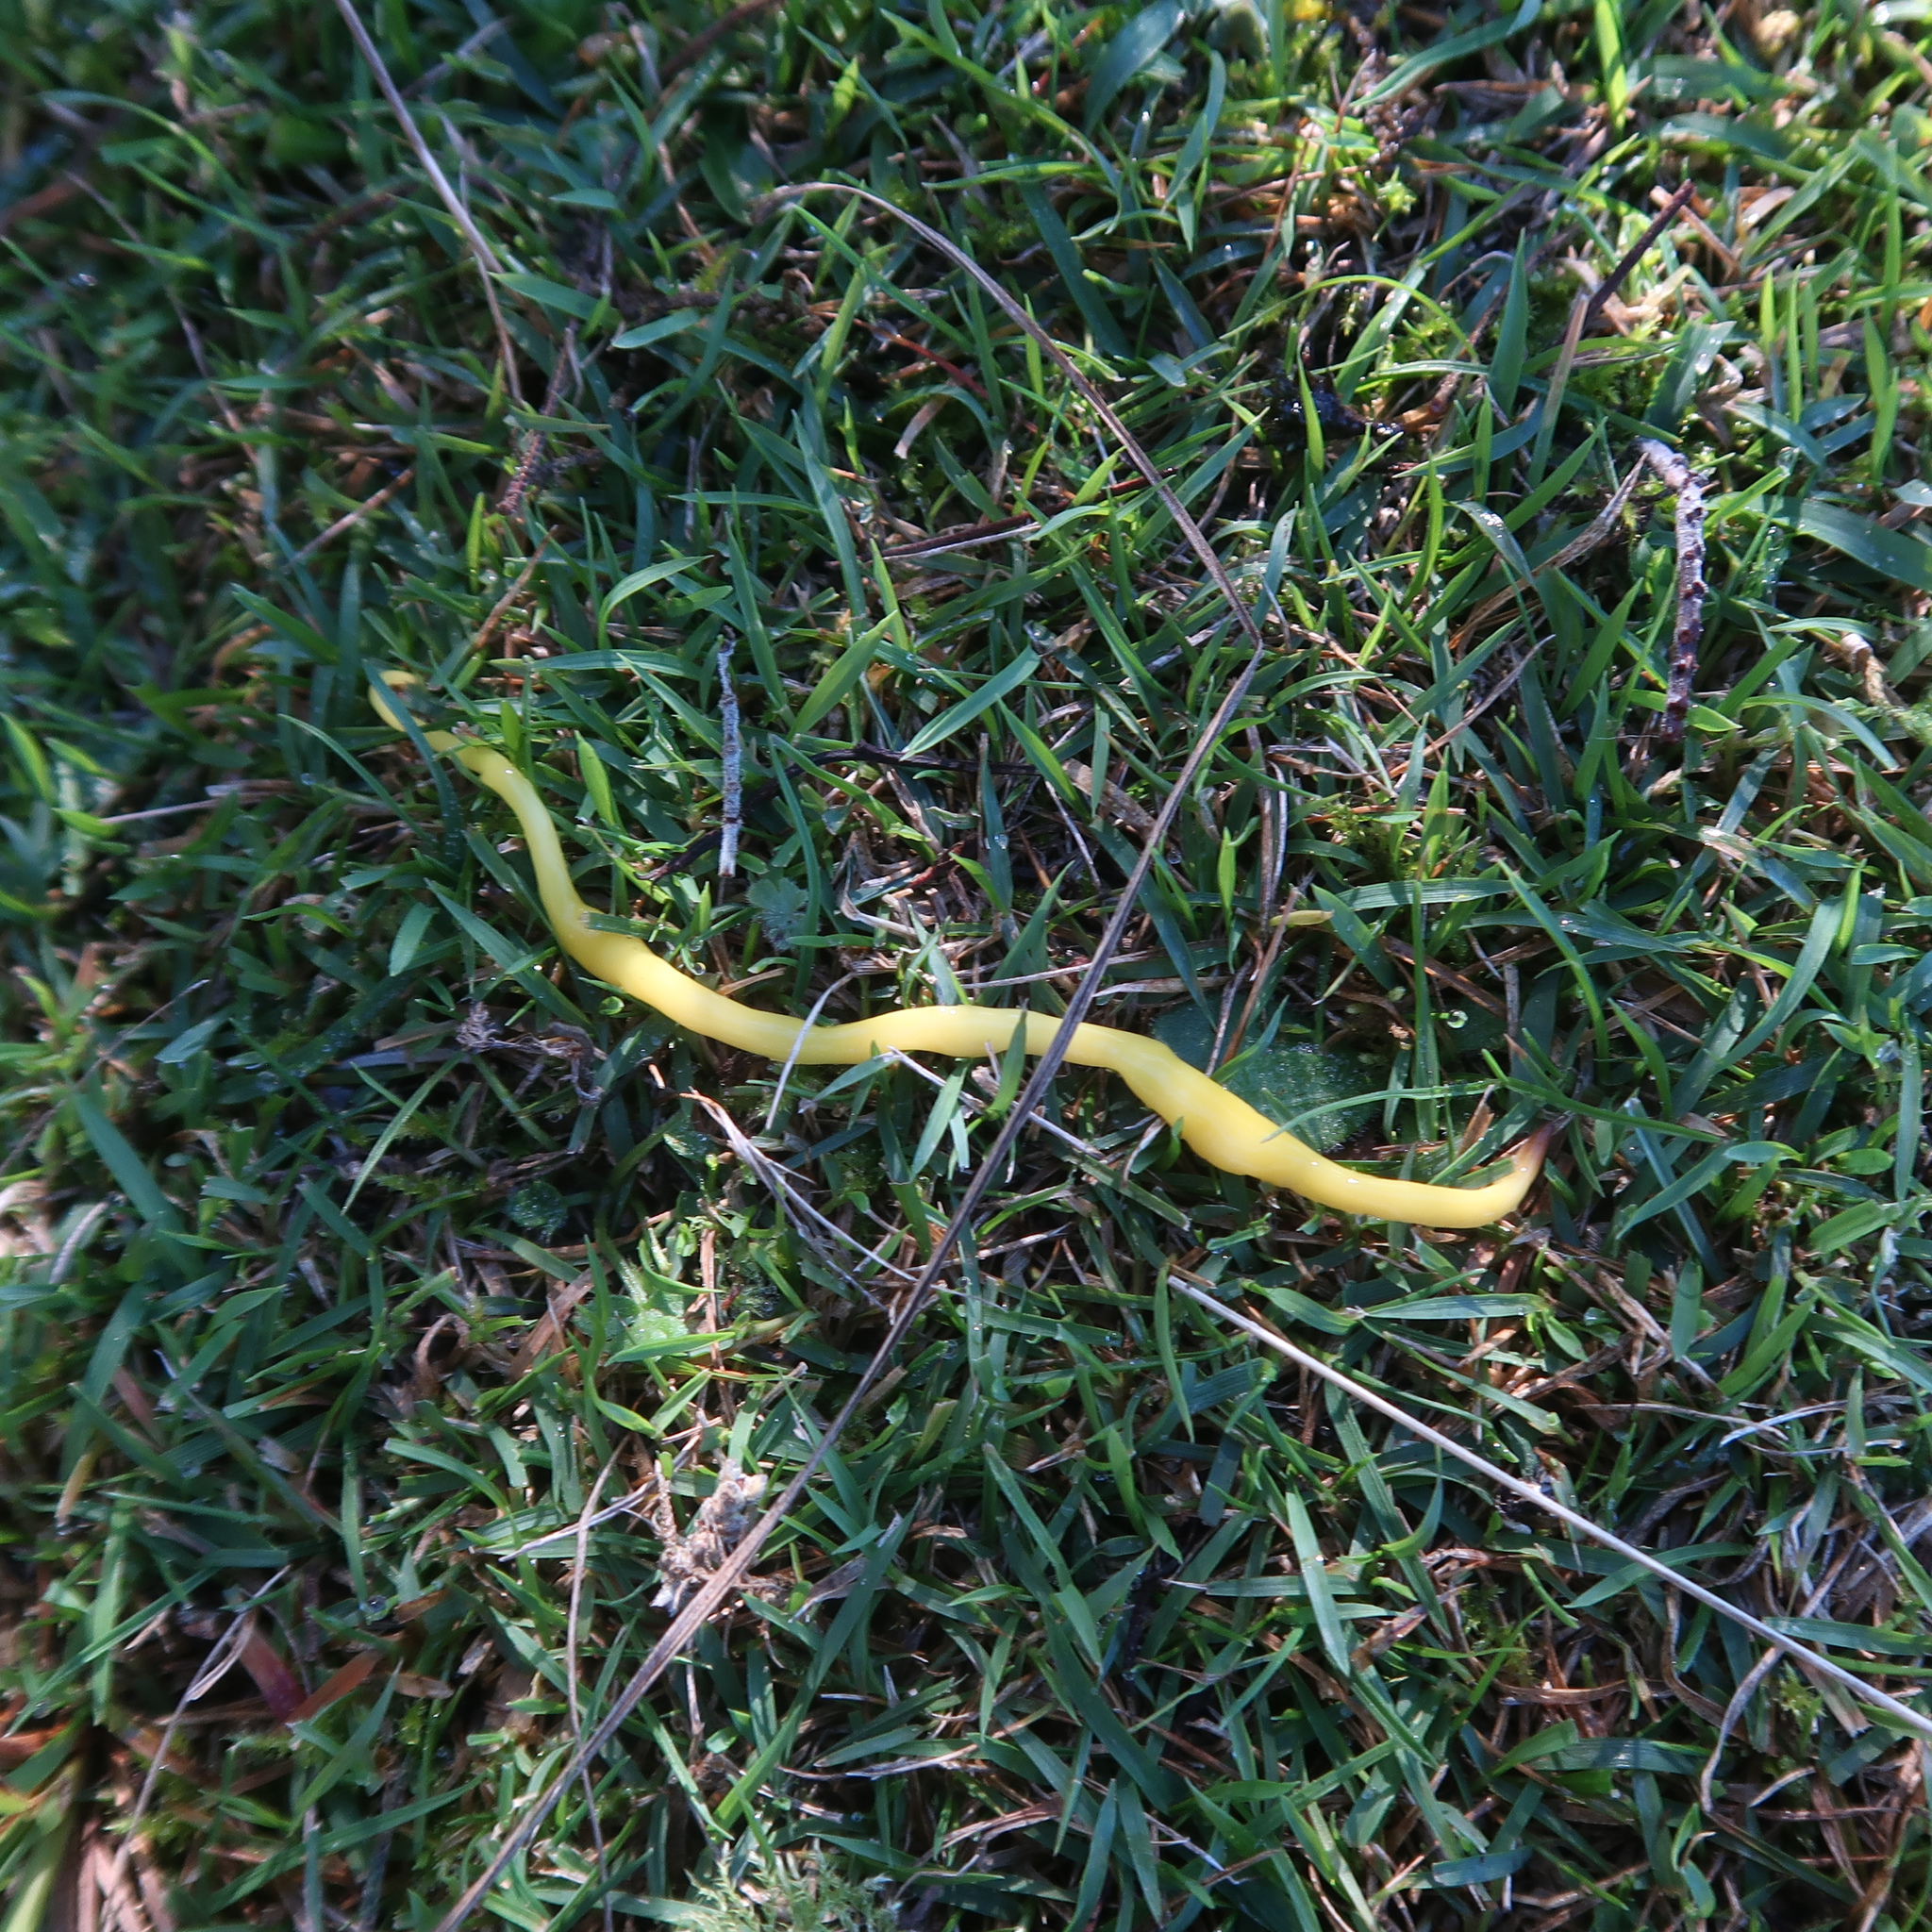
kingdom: Animalia
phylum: Platyhelminthes
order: Tricladida
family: Geoplanidae
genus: Fletchamia
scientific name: Fletchamia sugdeni
